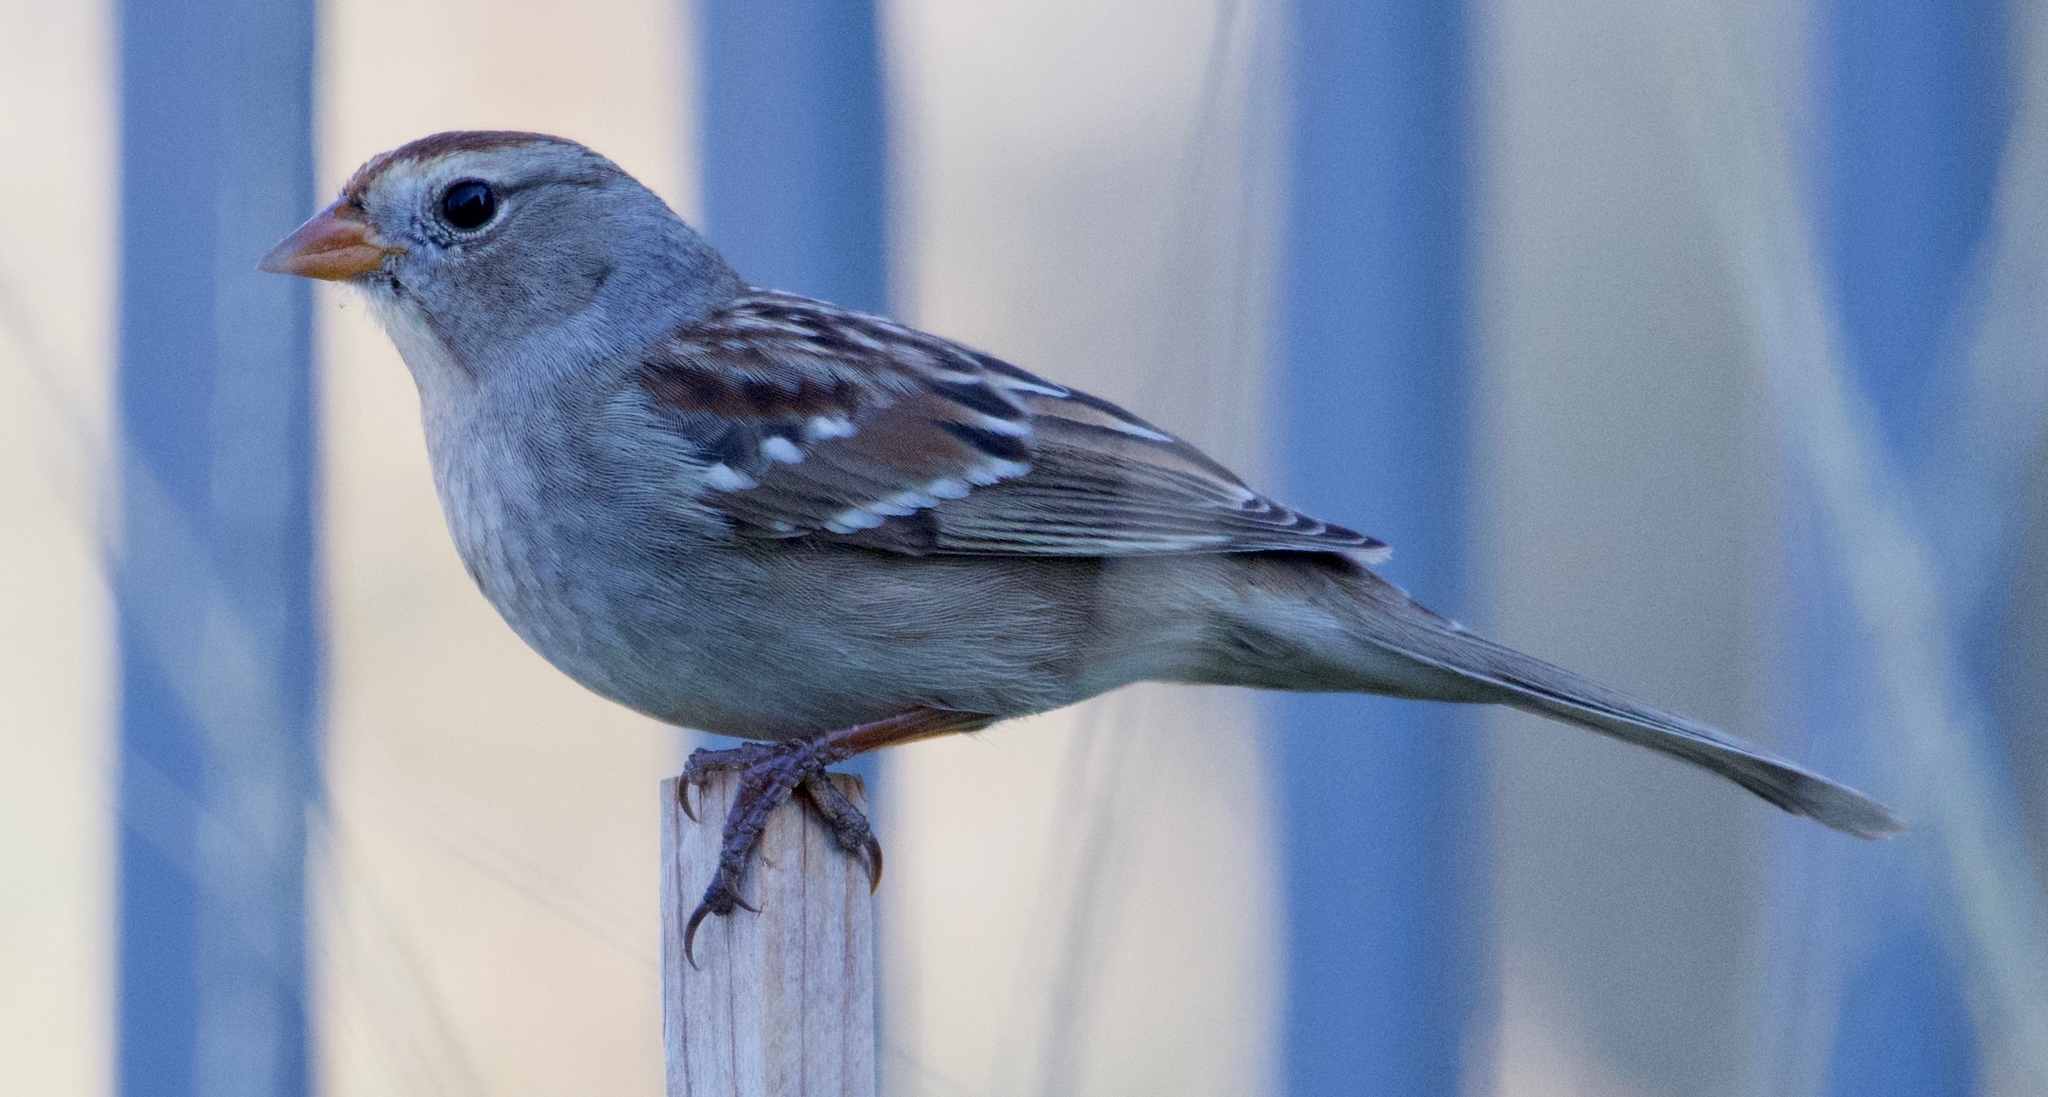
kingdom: Animalia
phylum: Chordata
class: Aves
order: Passeriformes
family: Passerellidae
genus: Zonotrichia
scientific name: Zonotrichia leucophrys
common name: White-crowned sparrow
